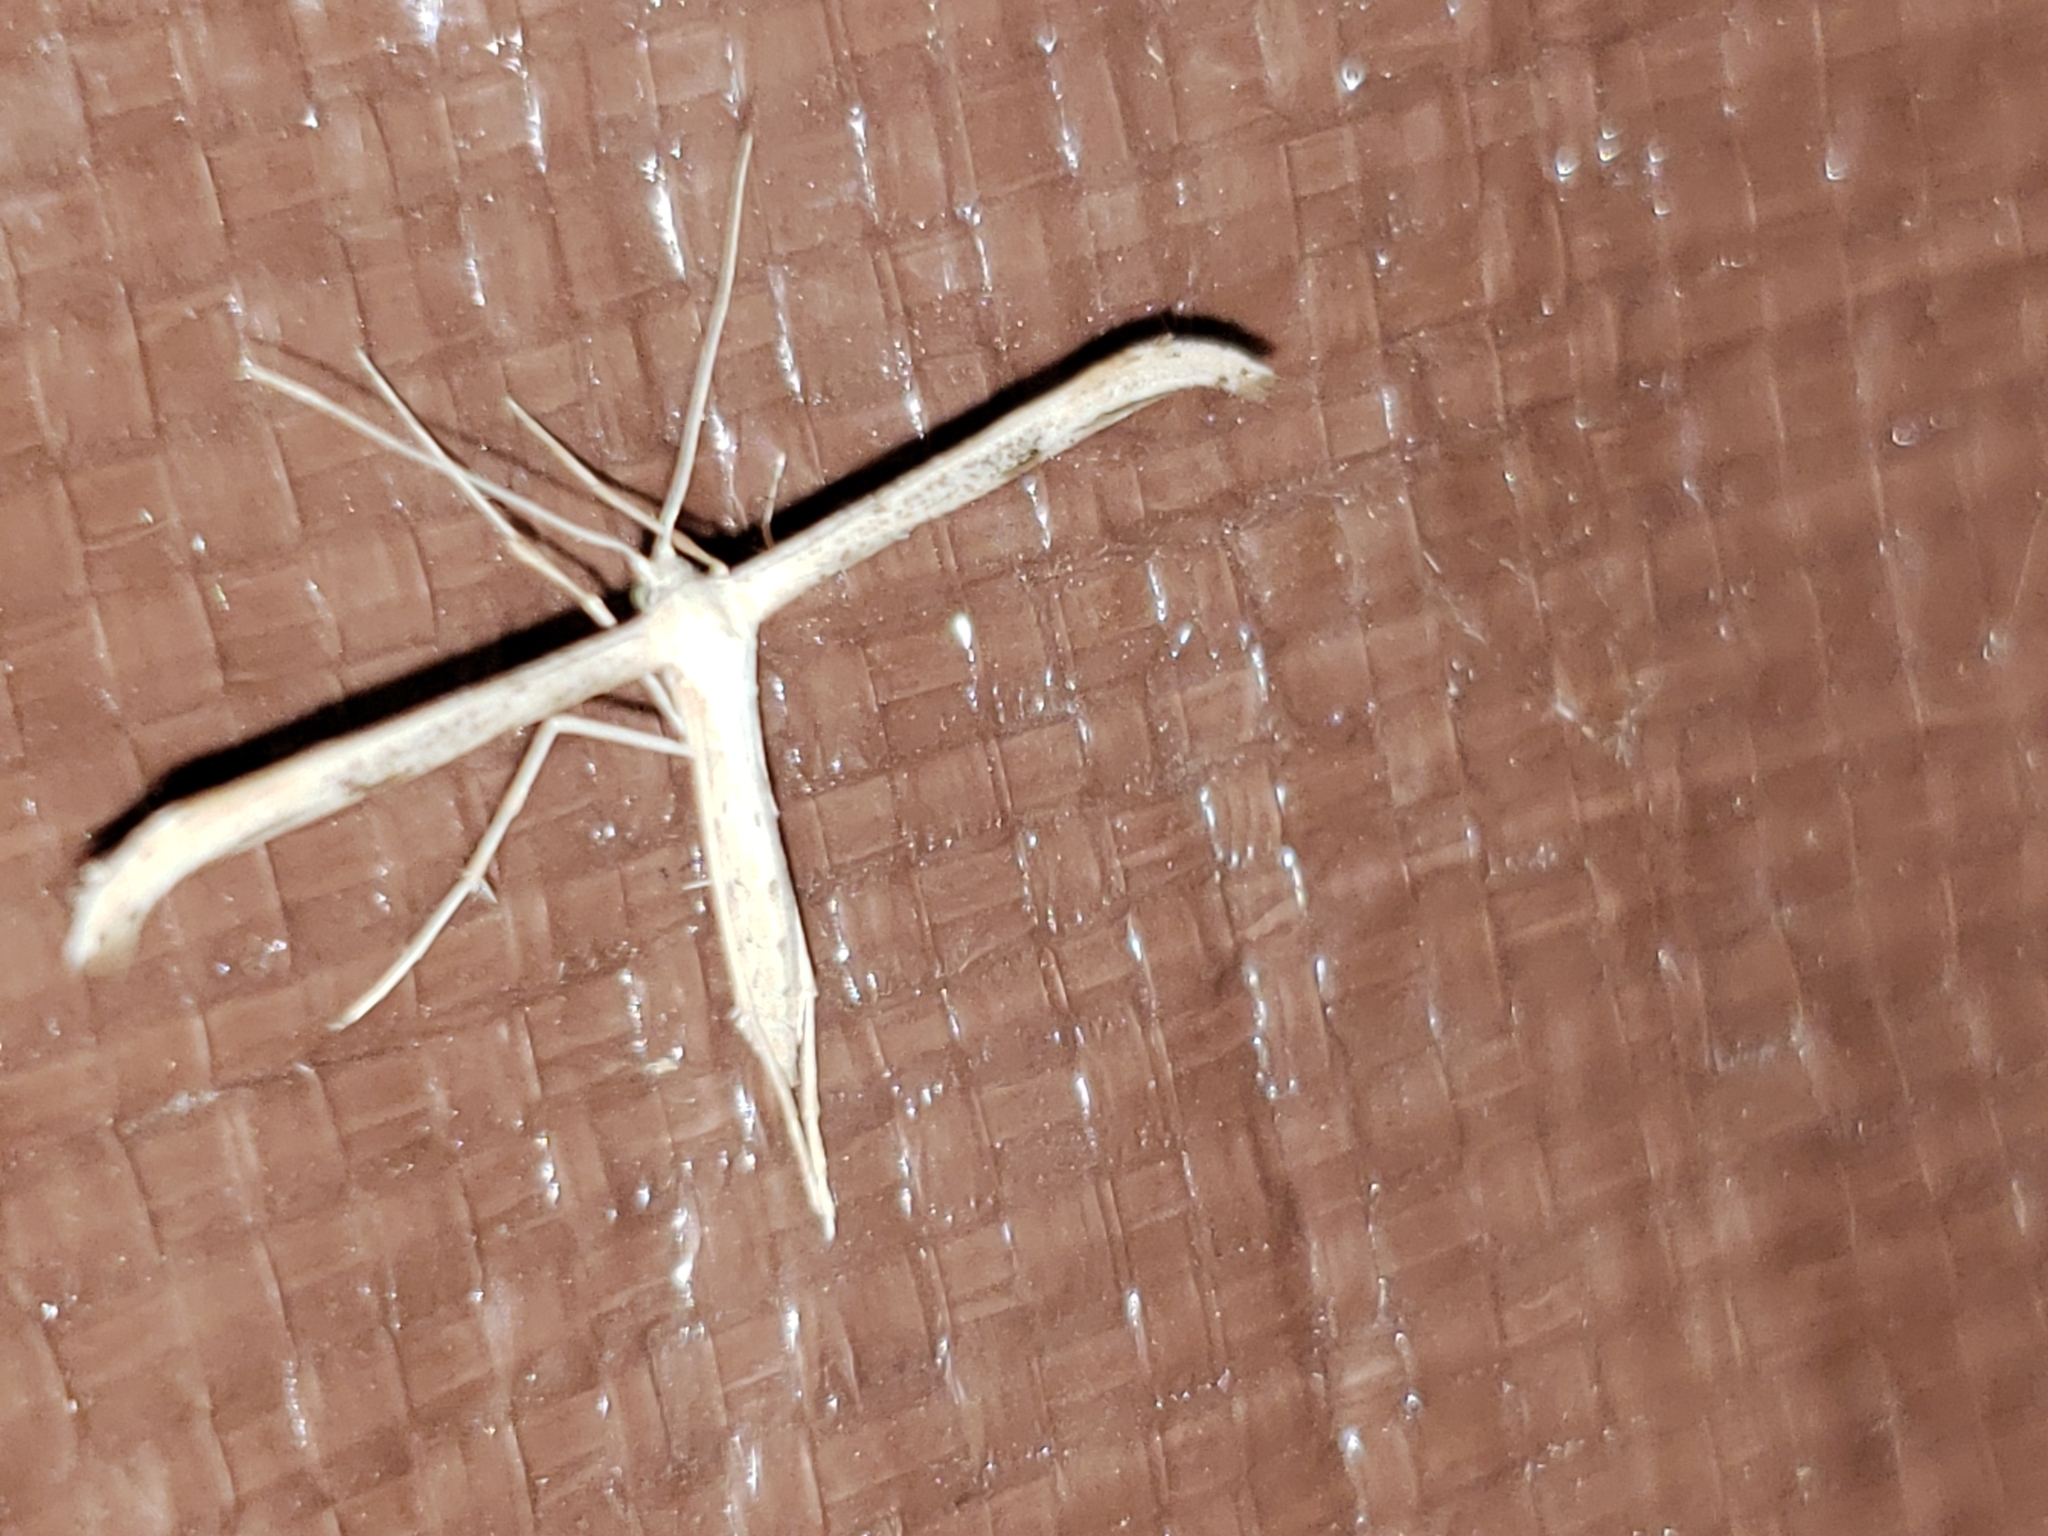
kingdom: Animalia
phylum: Arthropoda
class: Insecta
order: Lepidoptera
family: Pterophoridae
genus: Emmelina
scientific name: Emmelina monodactyla
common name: Common plume
